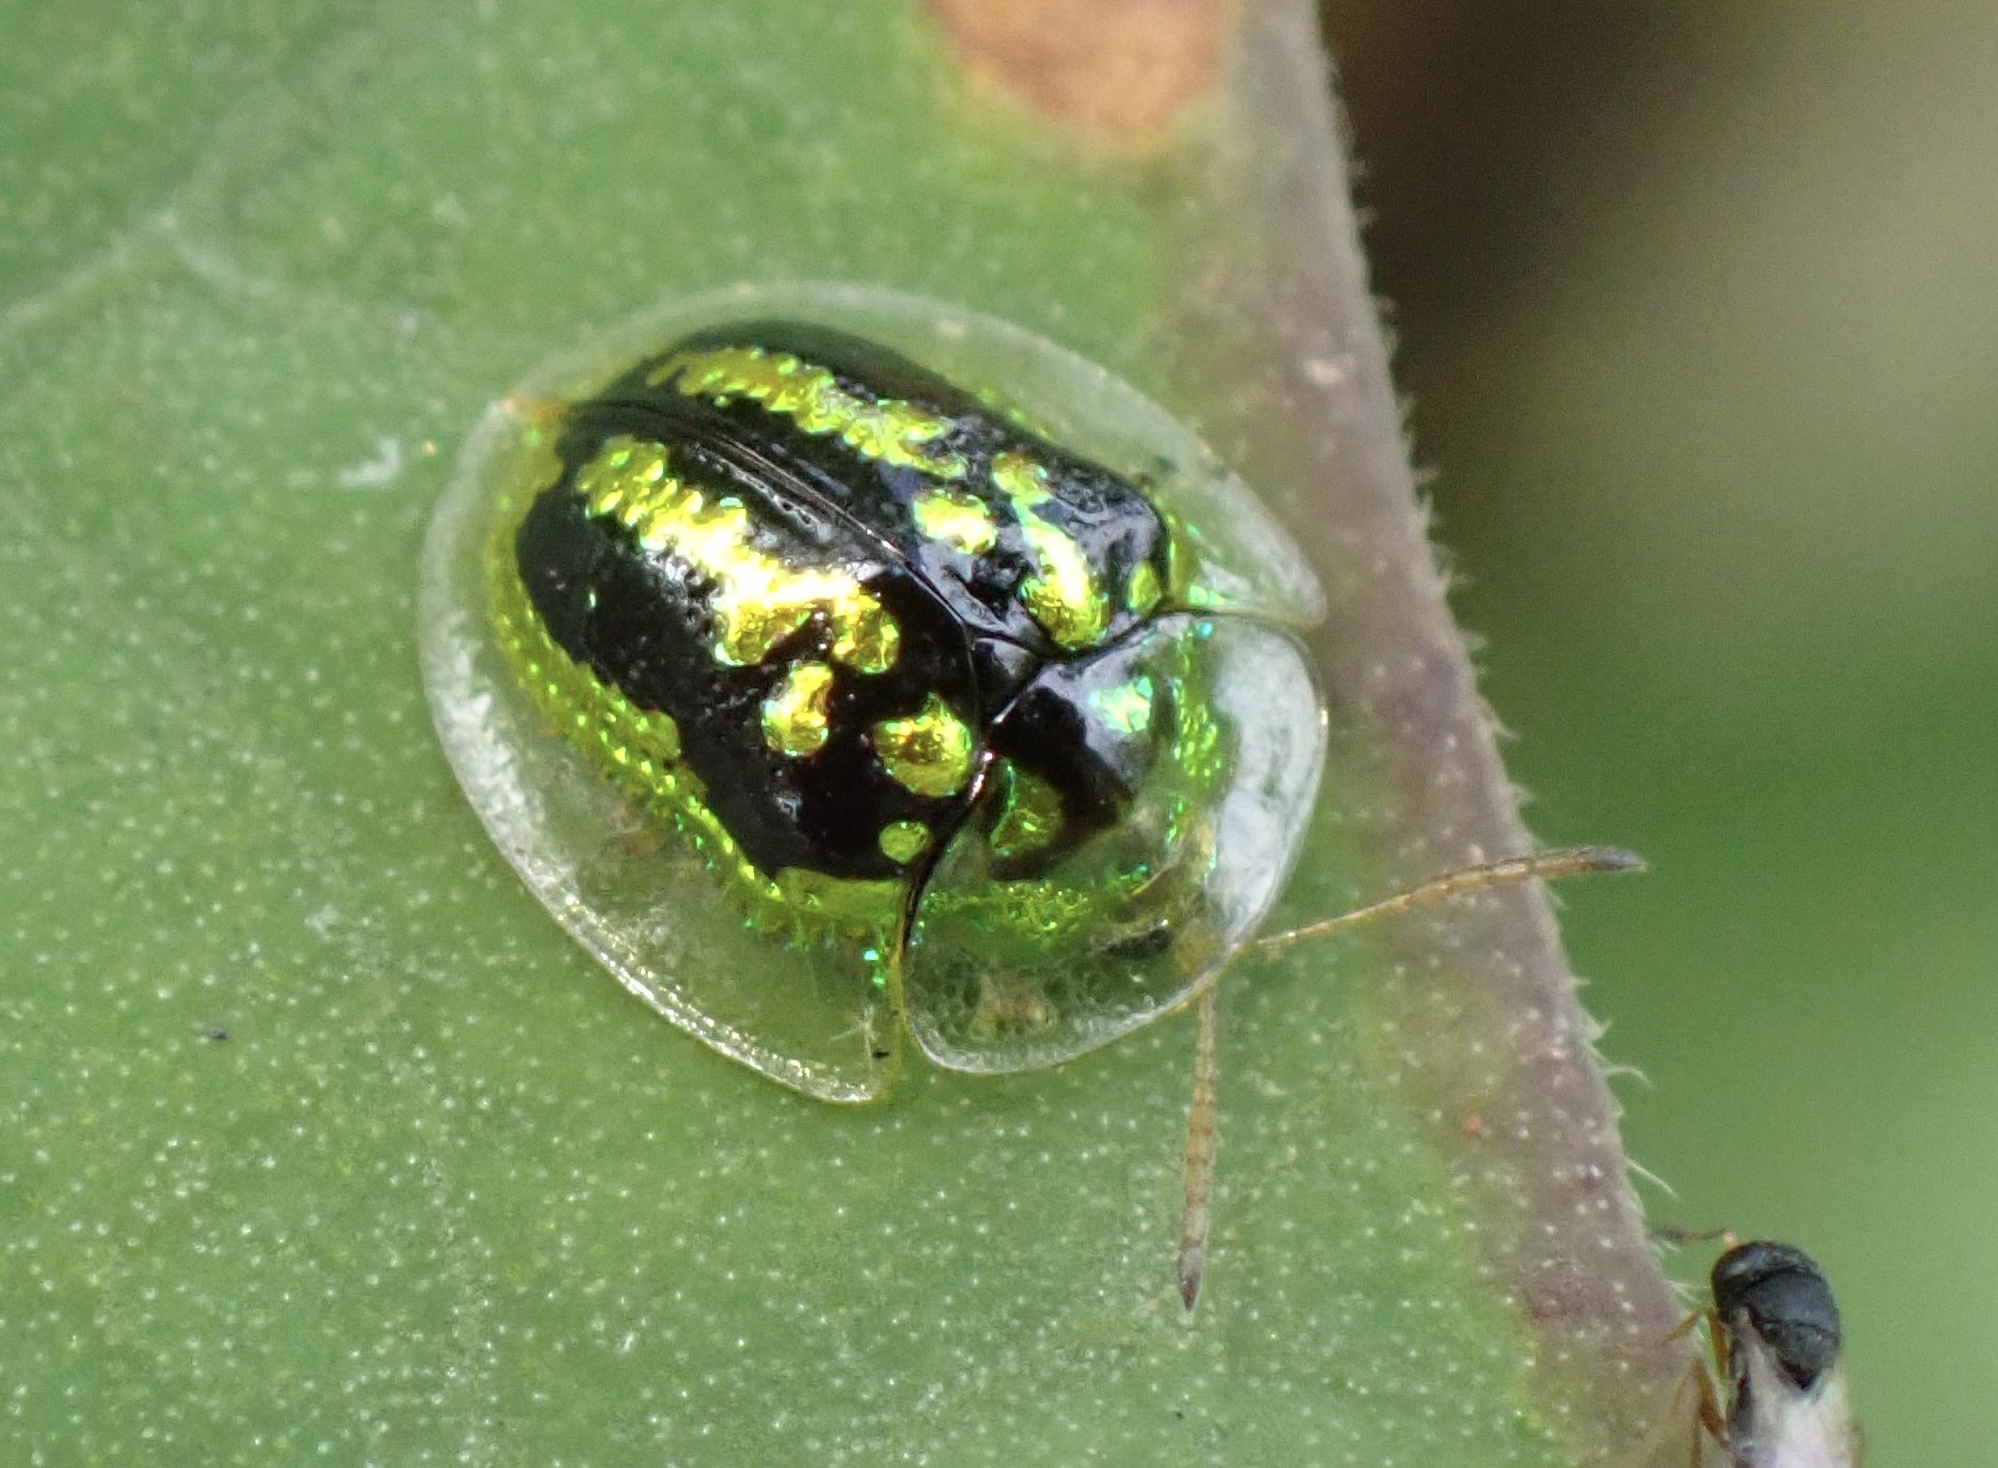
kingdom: Animalia
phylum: Arthropoda
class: Insecta
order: Coleoptera
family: Chrysomelidae
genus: Cassida
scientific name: Cassida circumdata
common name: Tortoise beetle
